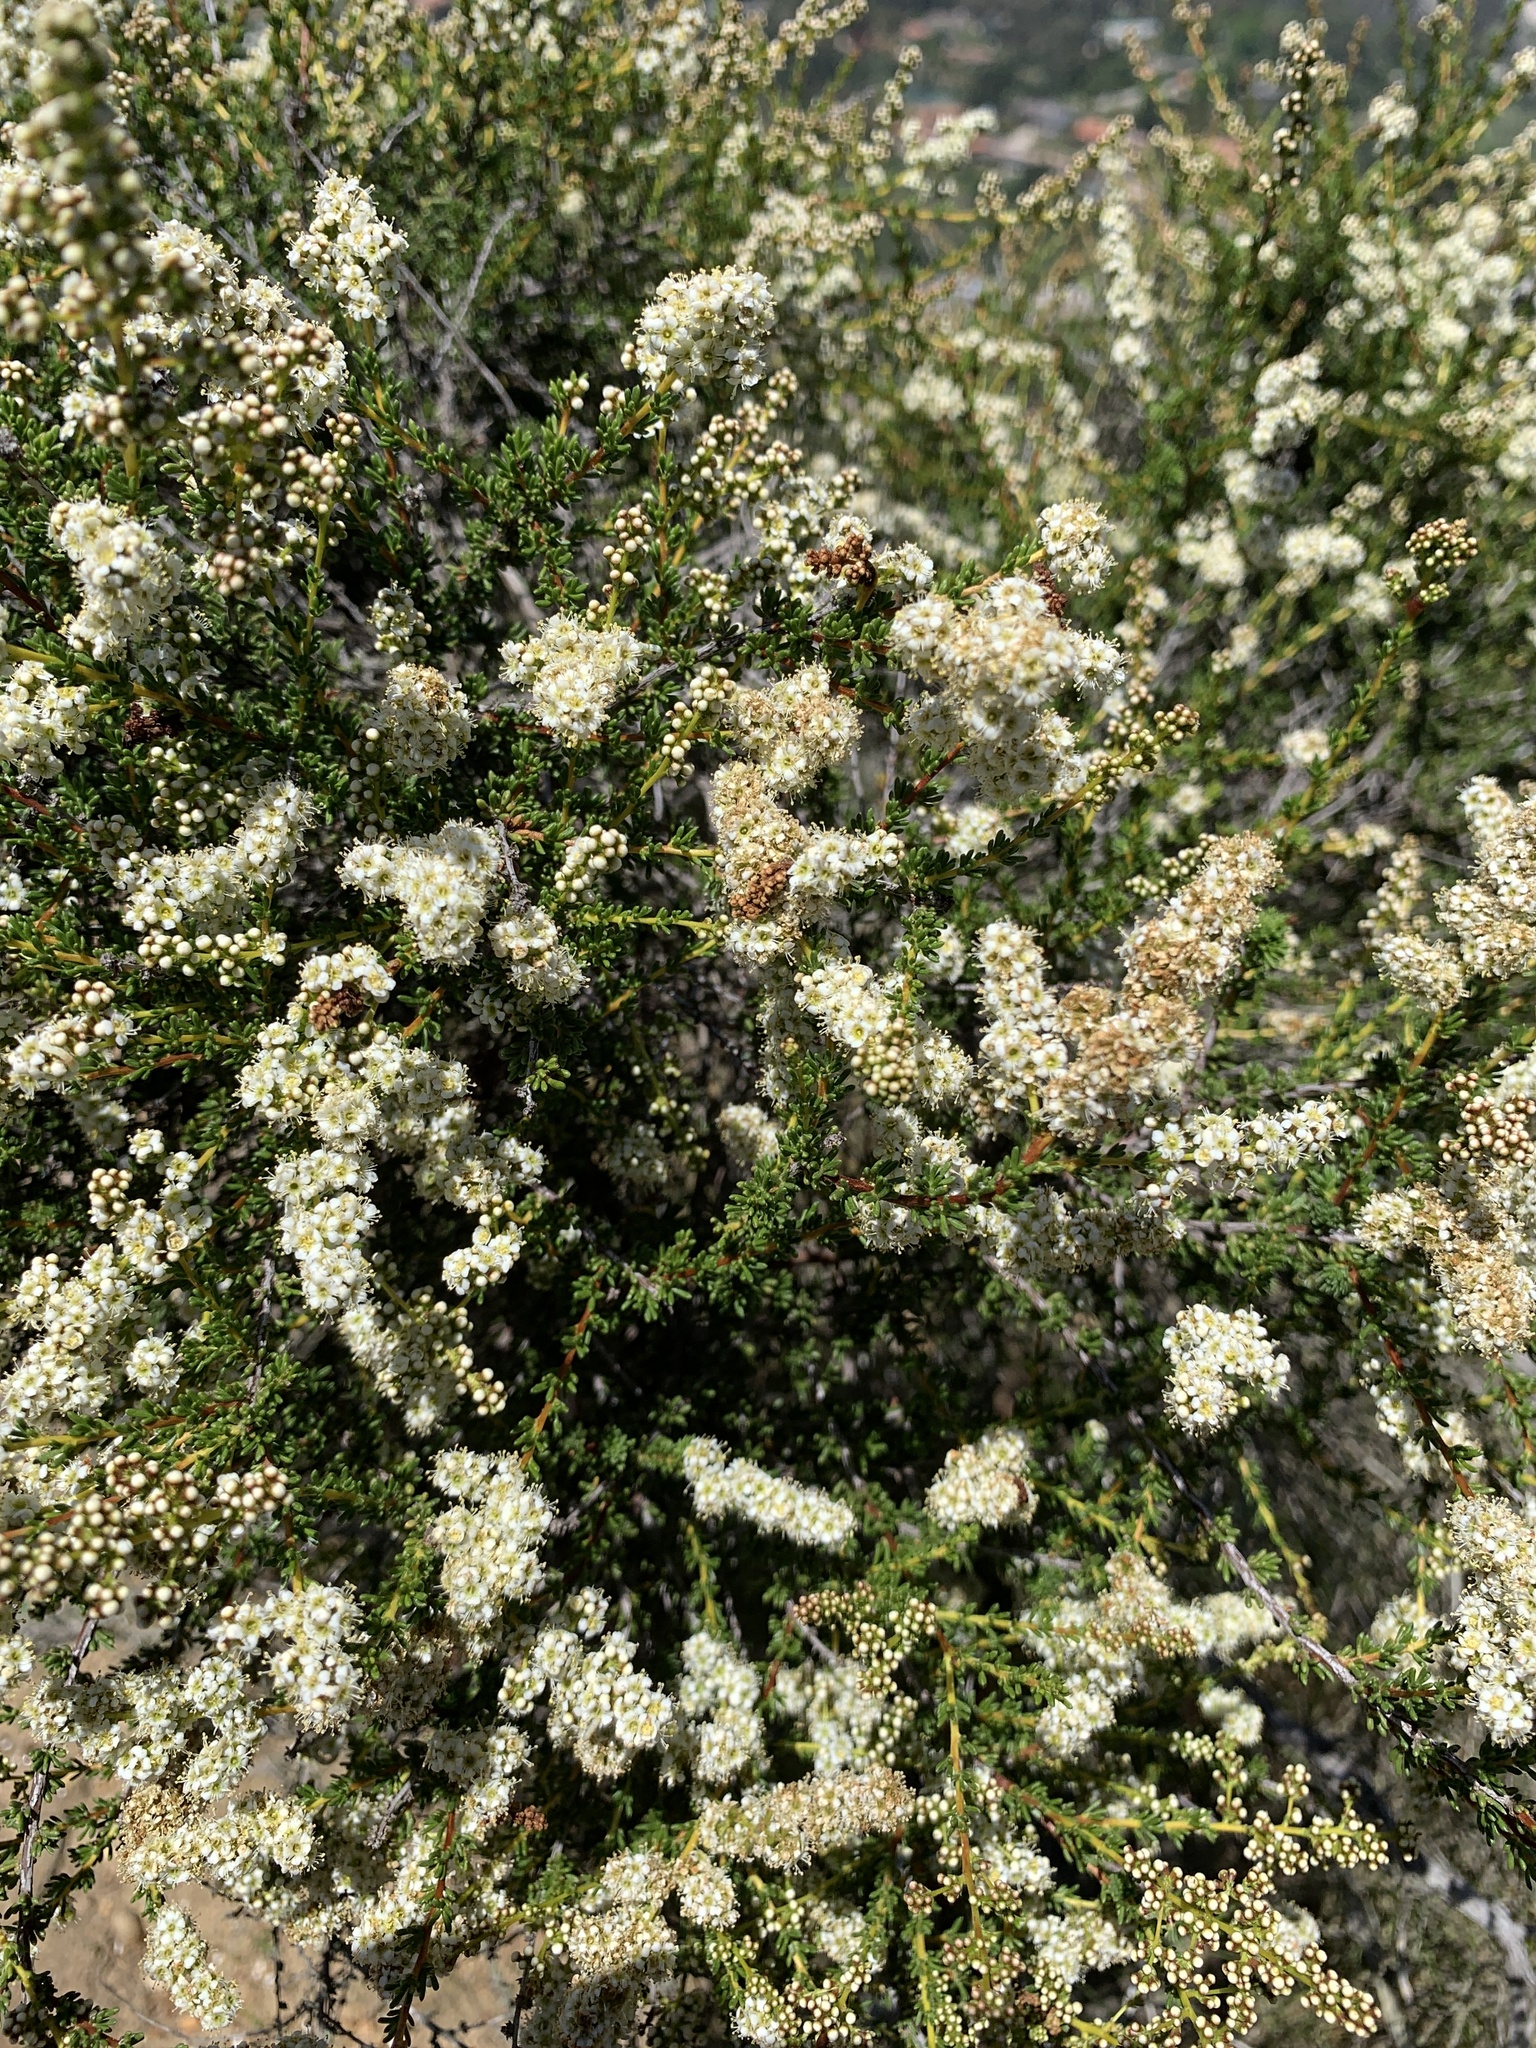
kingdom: Plantae
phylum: Tracheophyta
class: Magnoliopsida
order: Rosales
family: Rosaceae
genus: Adenostoma
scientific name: Adenostoma fasciculatum
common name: Chamise
